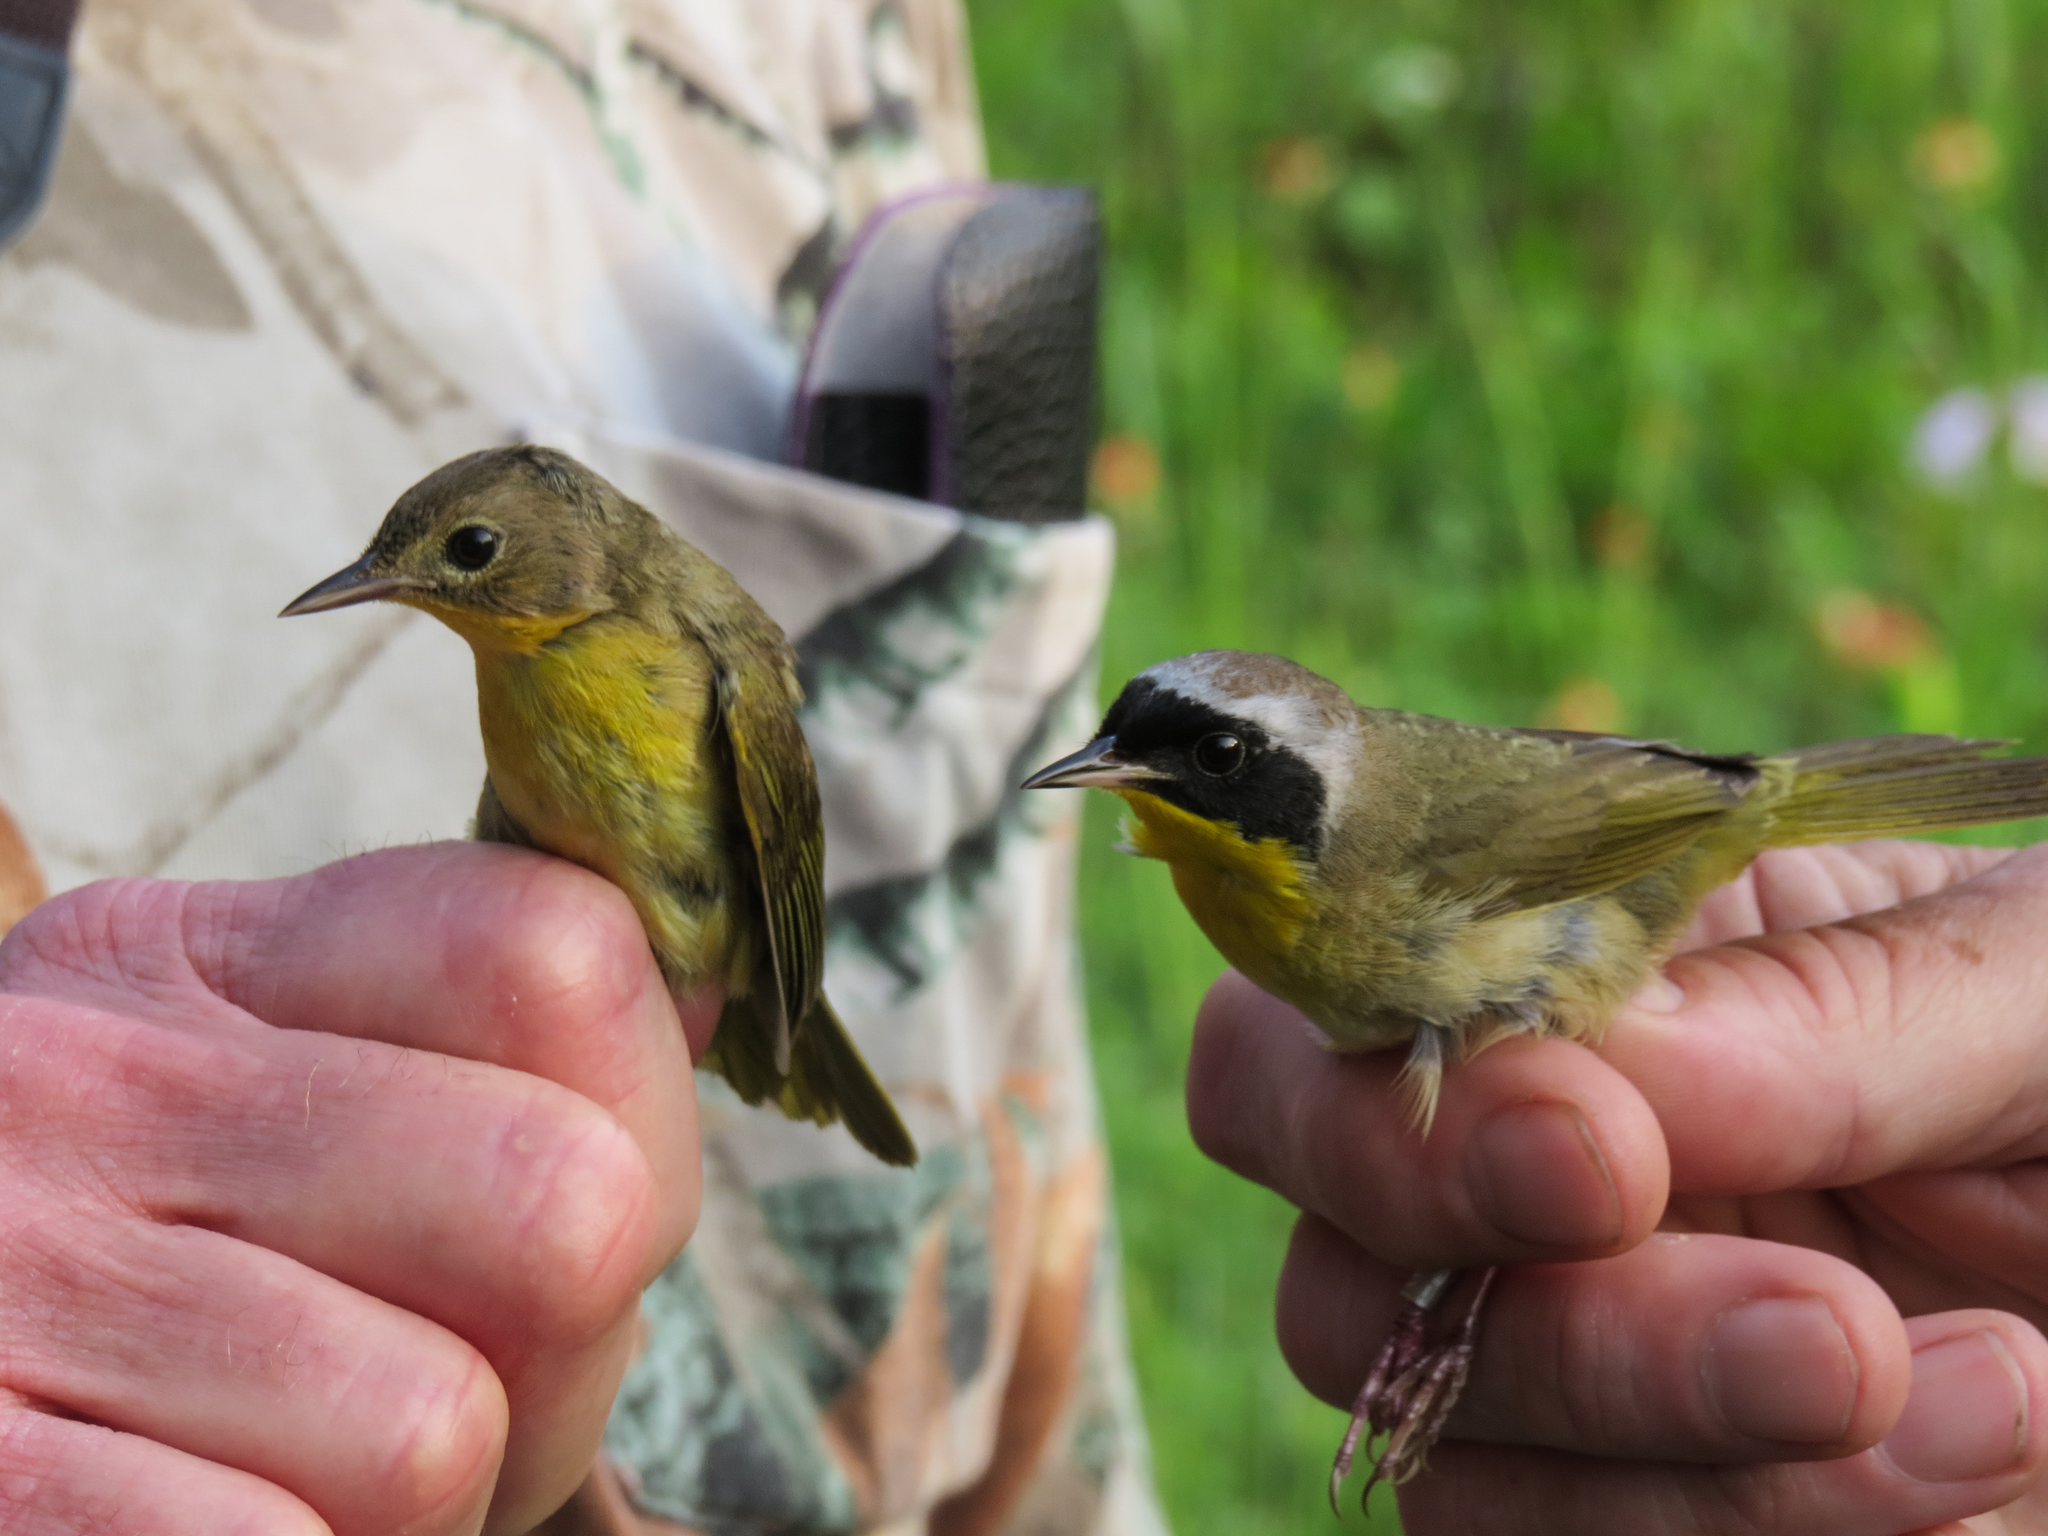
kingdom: Animalia
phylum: Chordata
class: Aves
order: Passeriformes
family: Parulidae
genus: Geothlypis
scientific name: Geothlypis trichas
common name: Common yellowthroat
